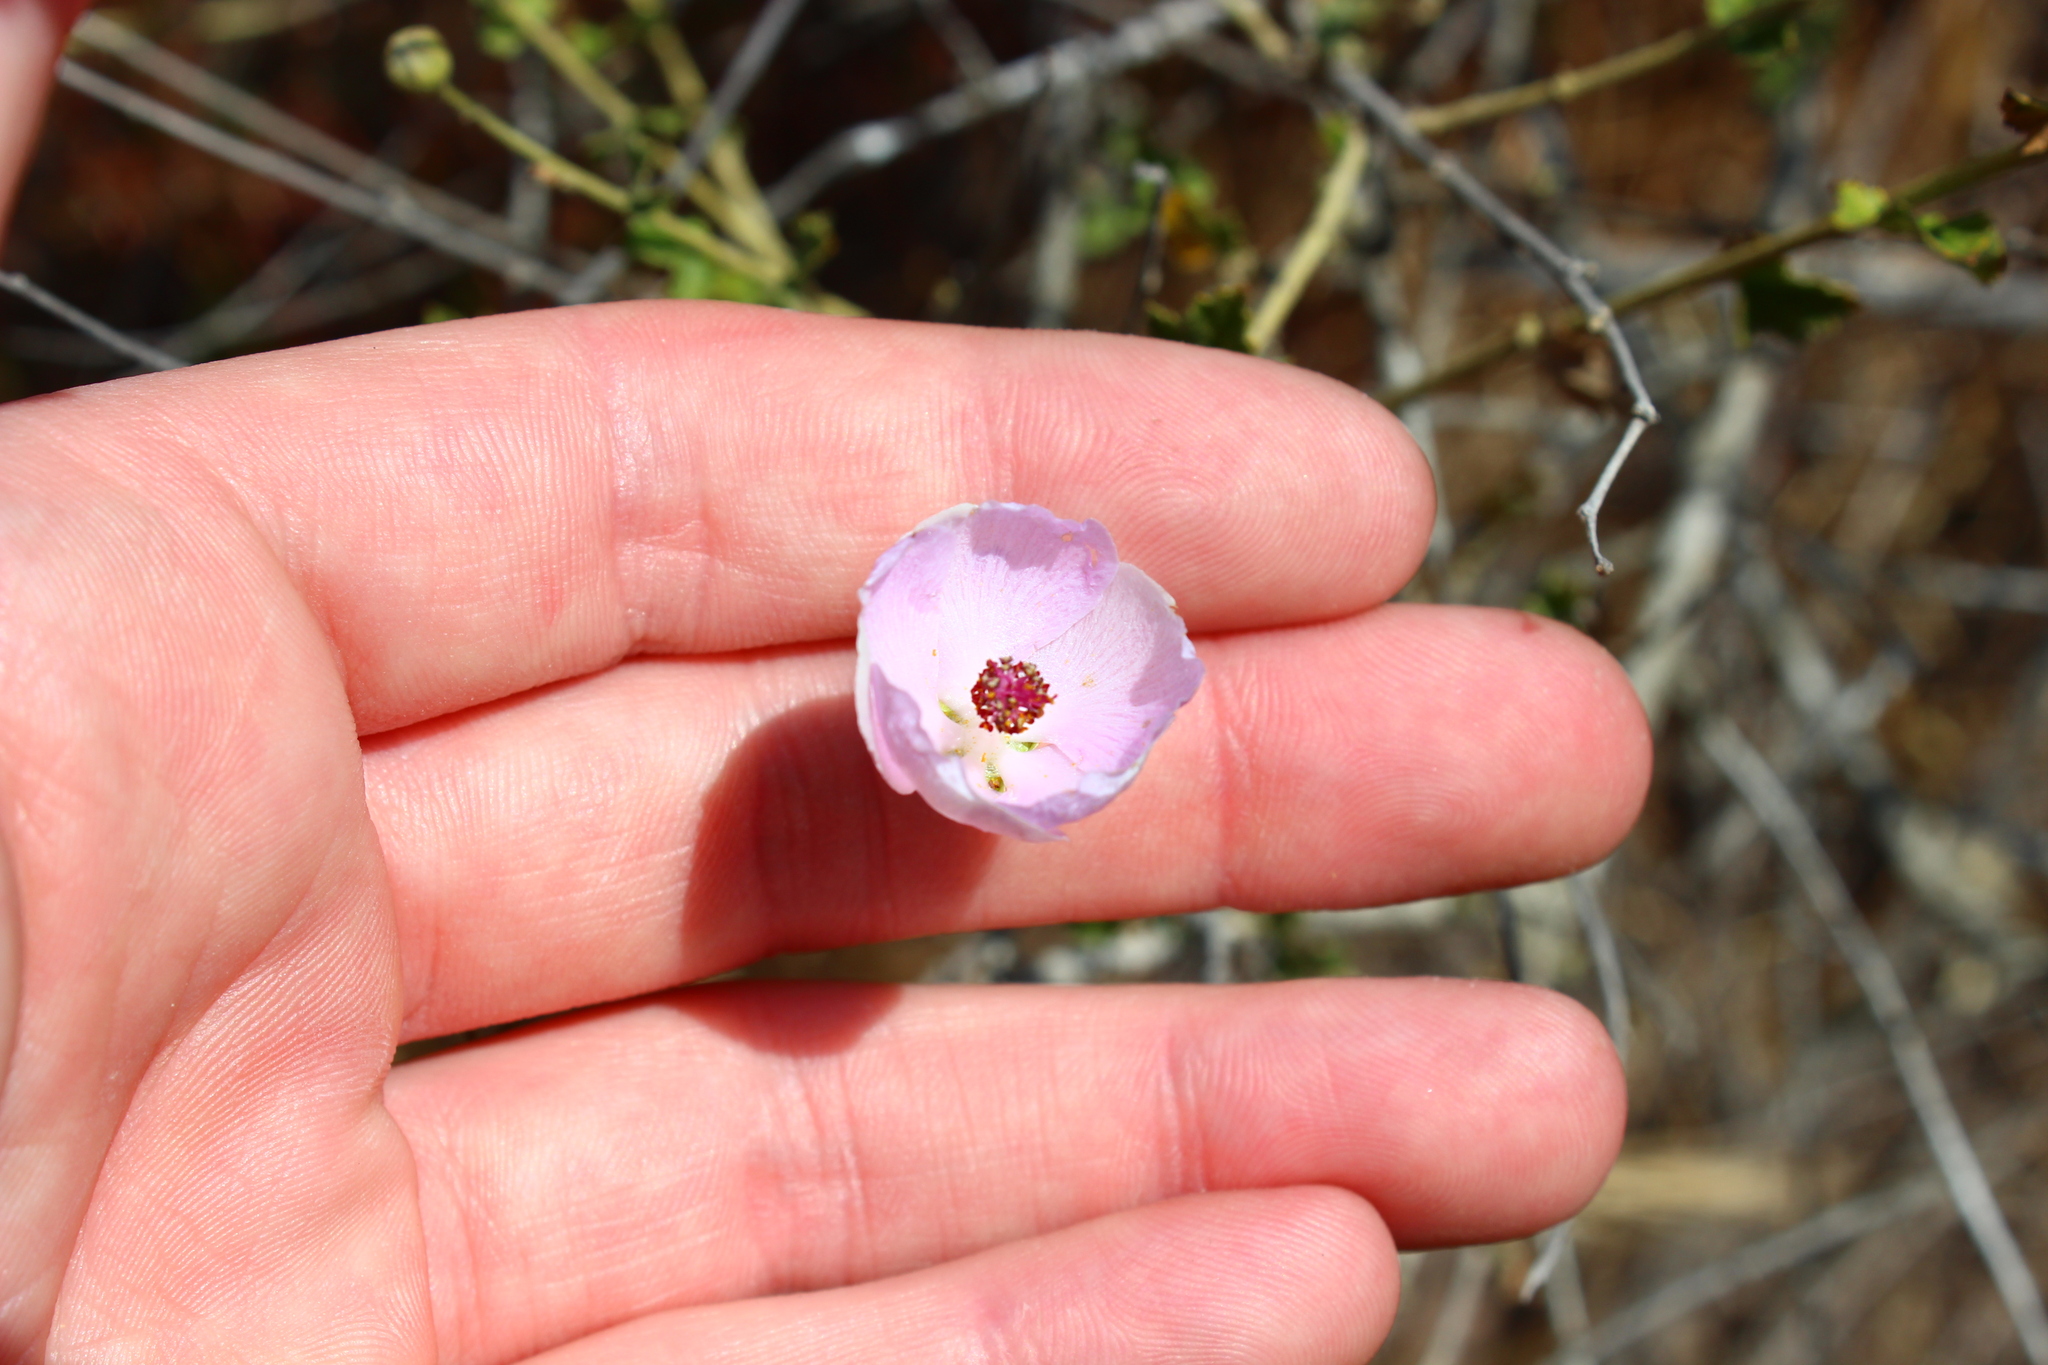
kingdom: Plantae
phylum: Tracheophyta
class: Magnoliopsida
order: Malvales
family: Malvaceae
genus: Malacothamnus
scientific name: Malacothamnus fasciculatus
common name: Sant cruz island bush-mallow
